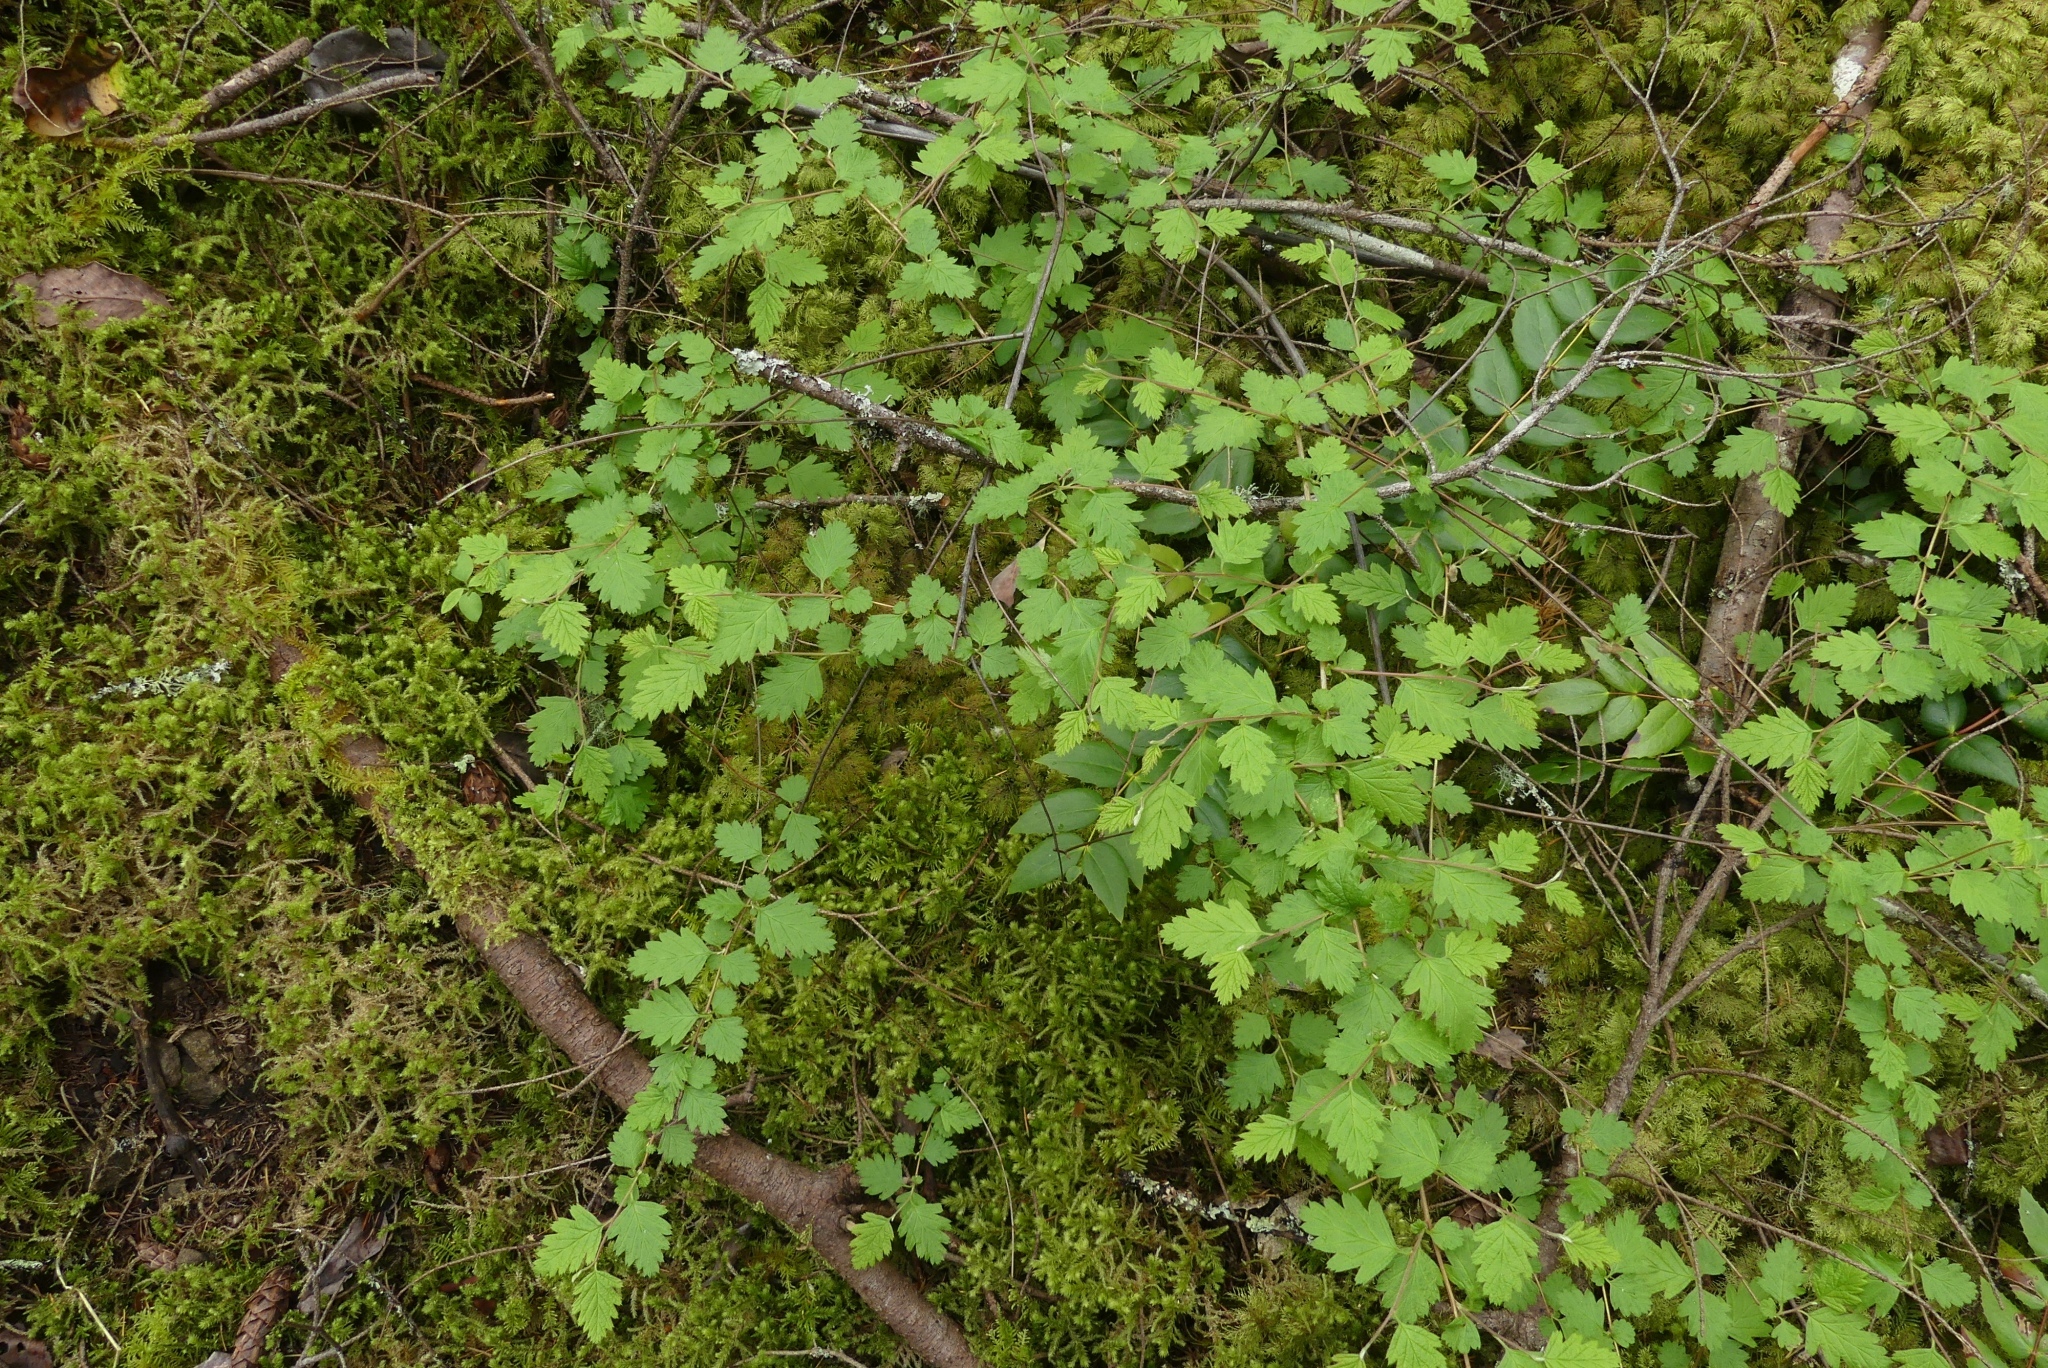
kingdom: Plantae
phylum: Tracheophyta
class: Magnoliopsida
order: Rosales
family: Rosaceae
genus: Holodiscus
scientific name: Holodiscus discolor
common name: Oceanspray
